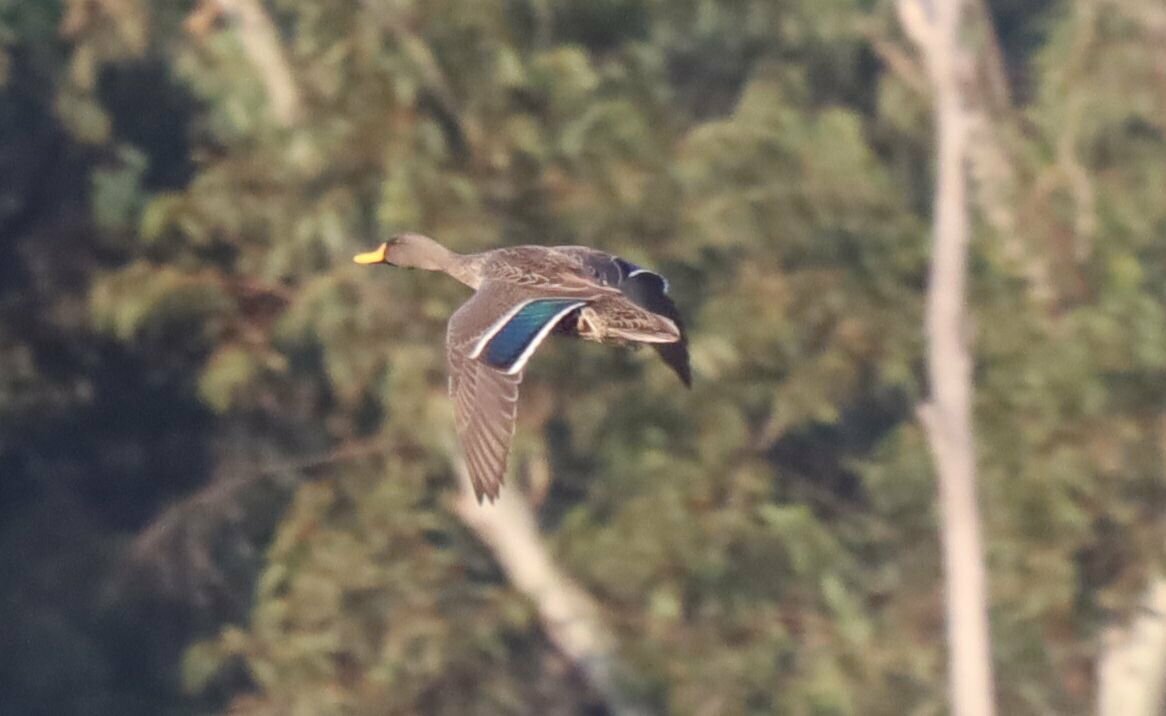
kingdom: Animalia
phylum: Chordata
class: Aves
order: Anseriformes
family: Anatidae
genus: Anas
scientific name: Anas undulata
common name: Yellow-billed duck
